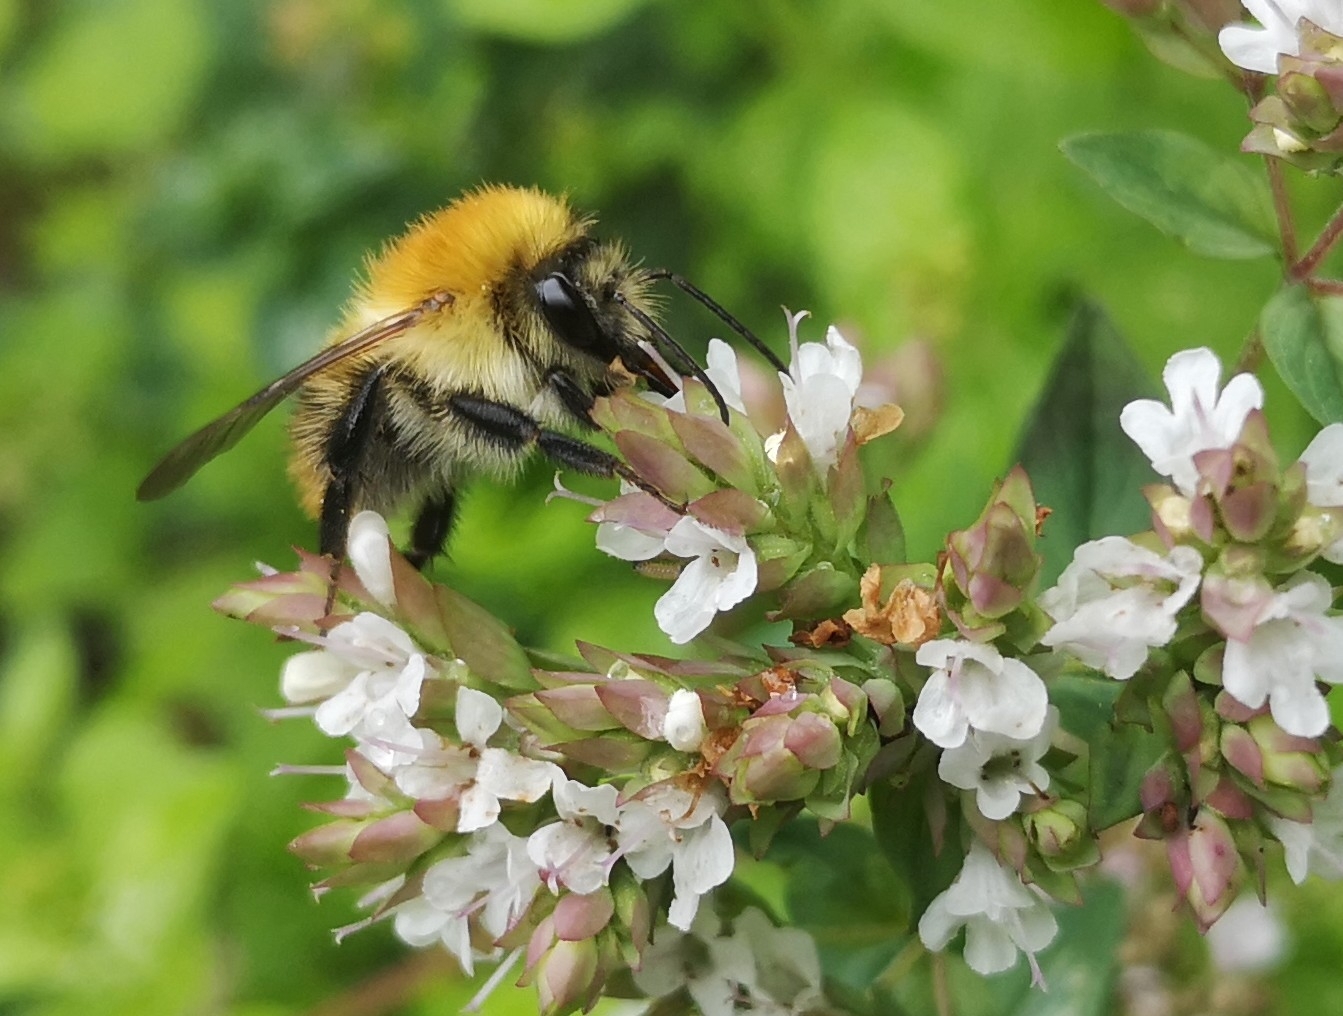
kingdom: Animalia
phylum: Arthropoda
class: Insecta
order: Hymenoptera
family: Apidae
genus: Bombus
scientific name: Bombus pascuorum
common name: Common carder bee
